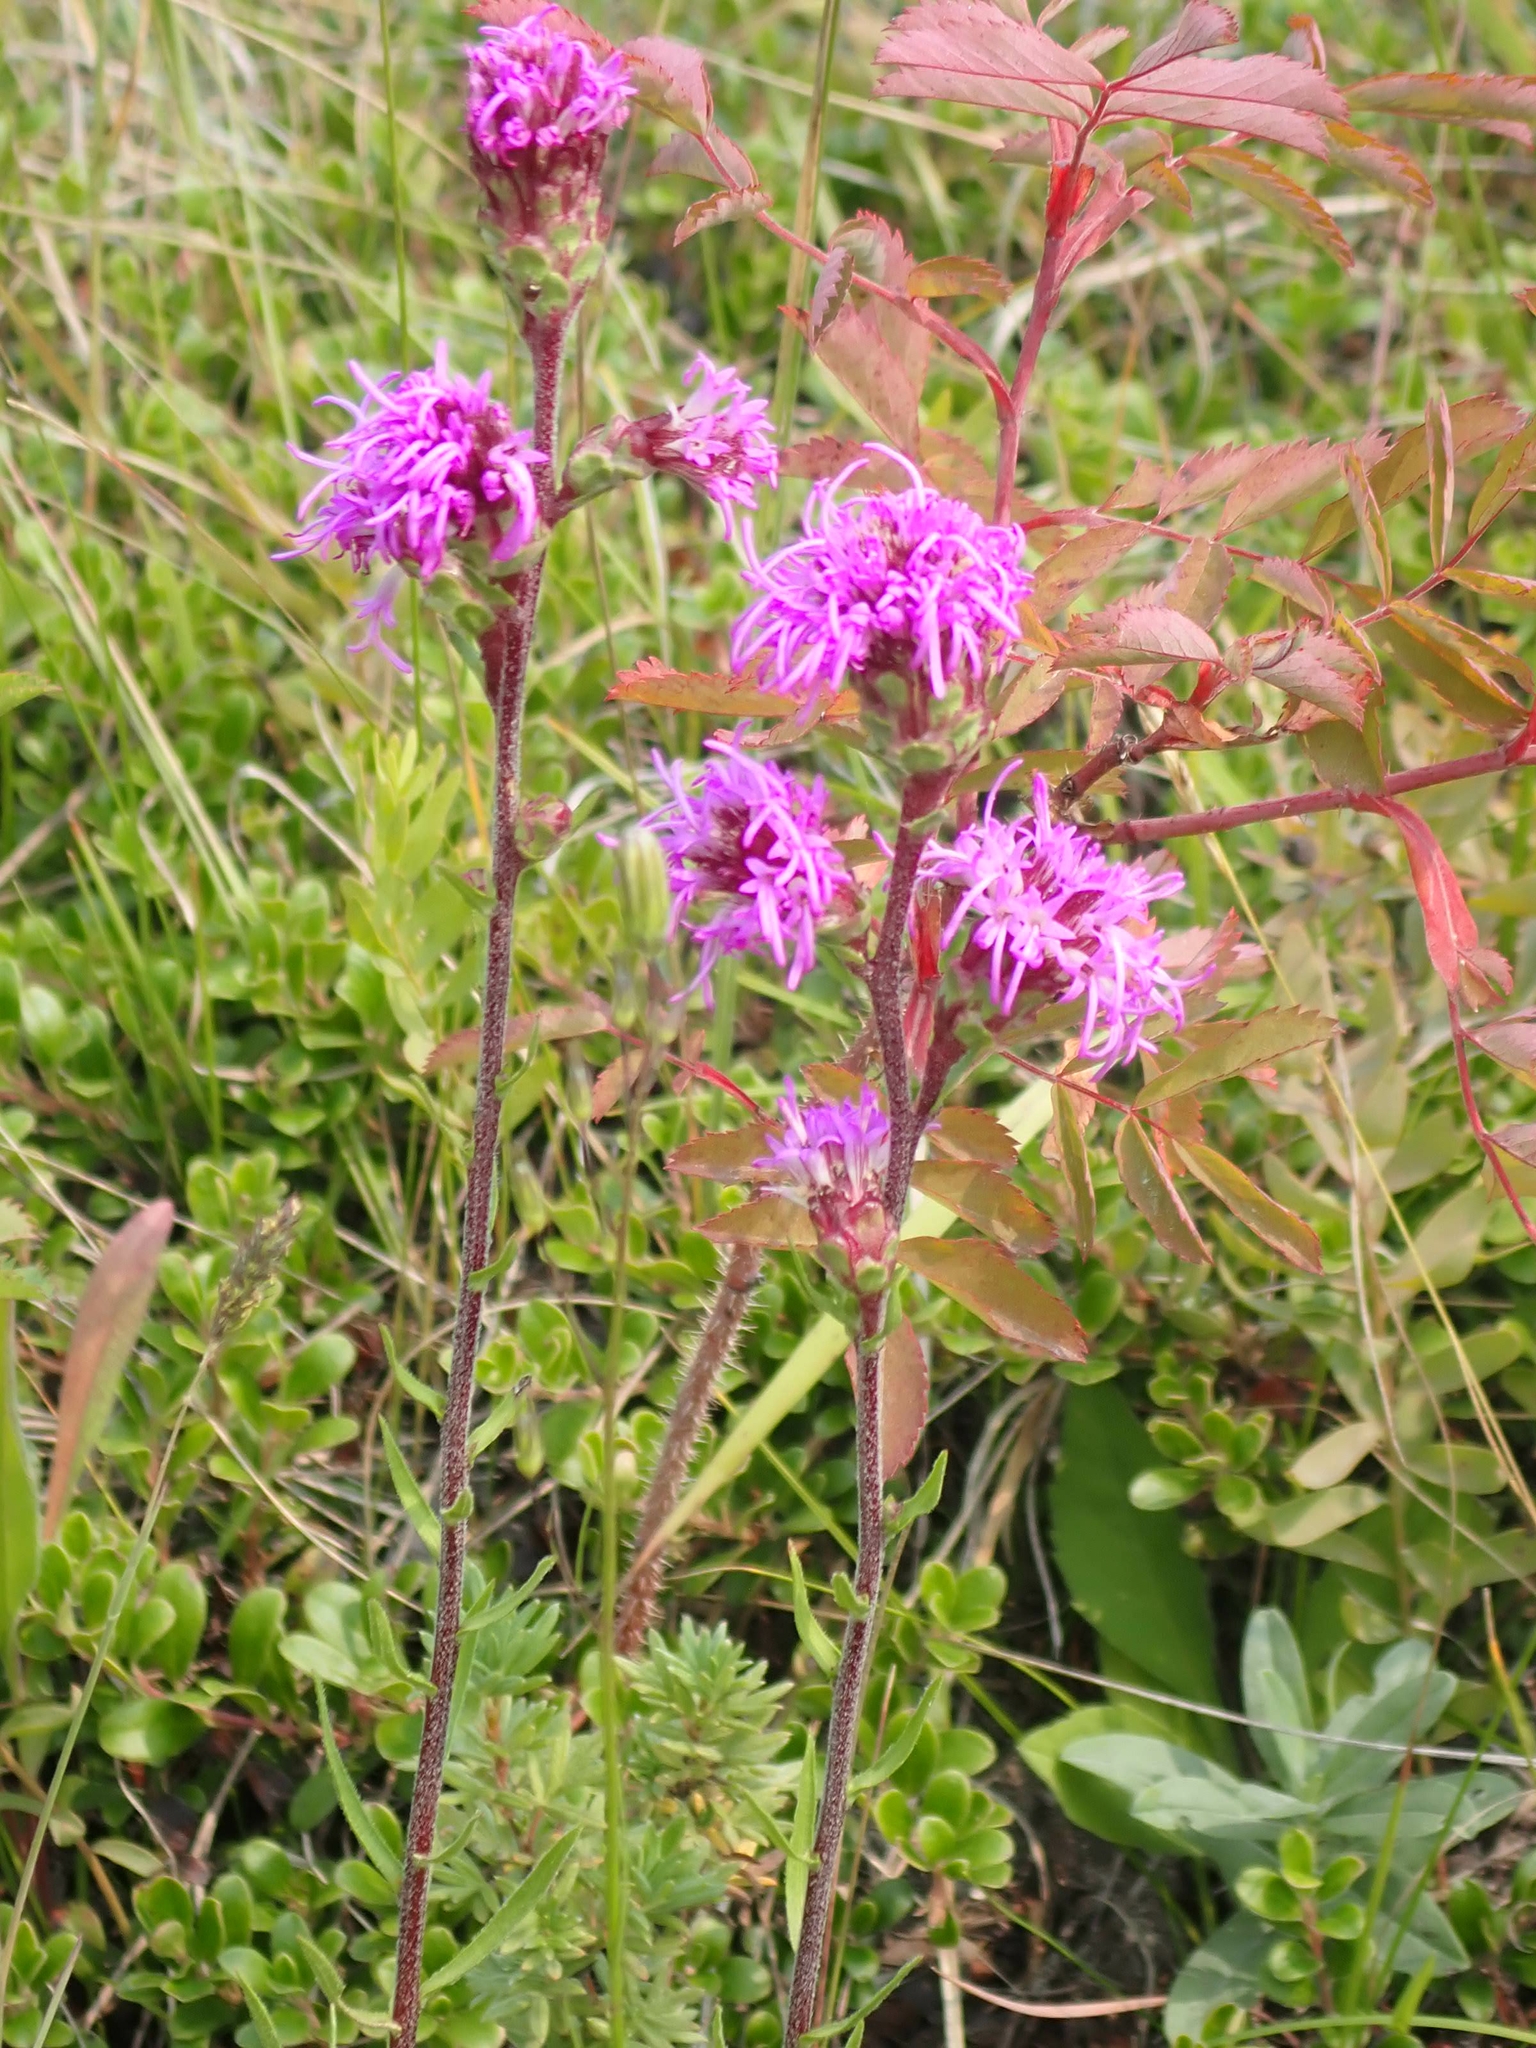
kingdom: Plantae
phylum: Tracheophyta
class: Magnoliopsida
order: Asterales
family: Asteraceae
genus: Liatris
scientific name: Liatris ligulistylis
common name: Northern plains gayfeather
